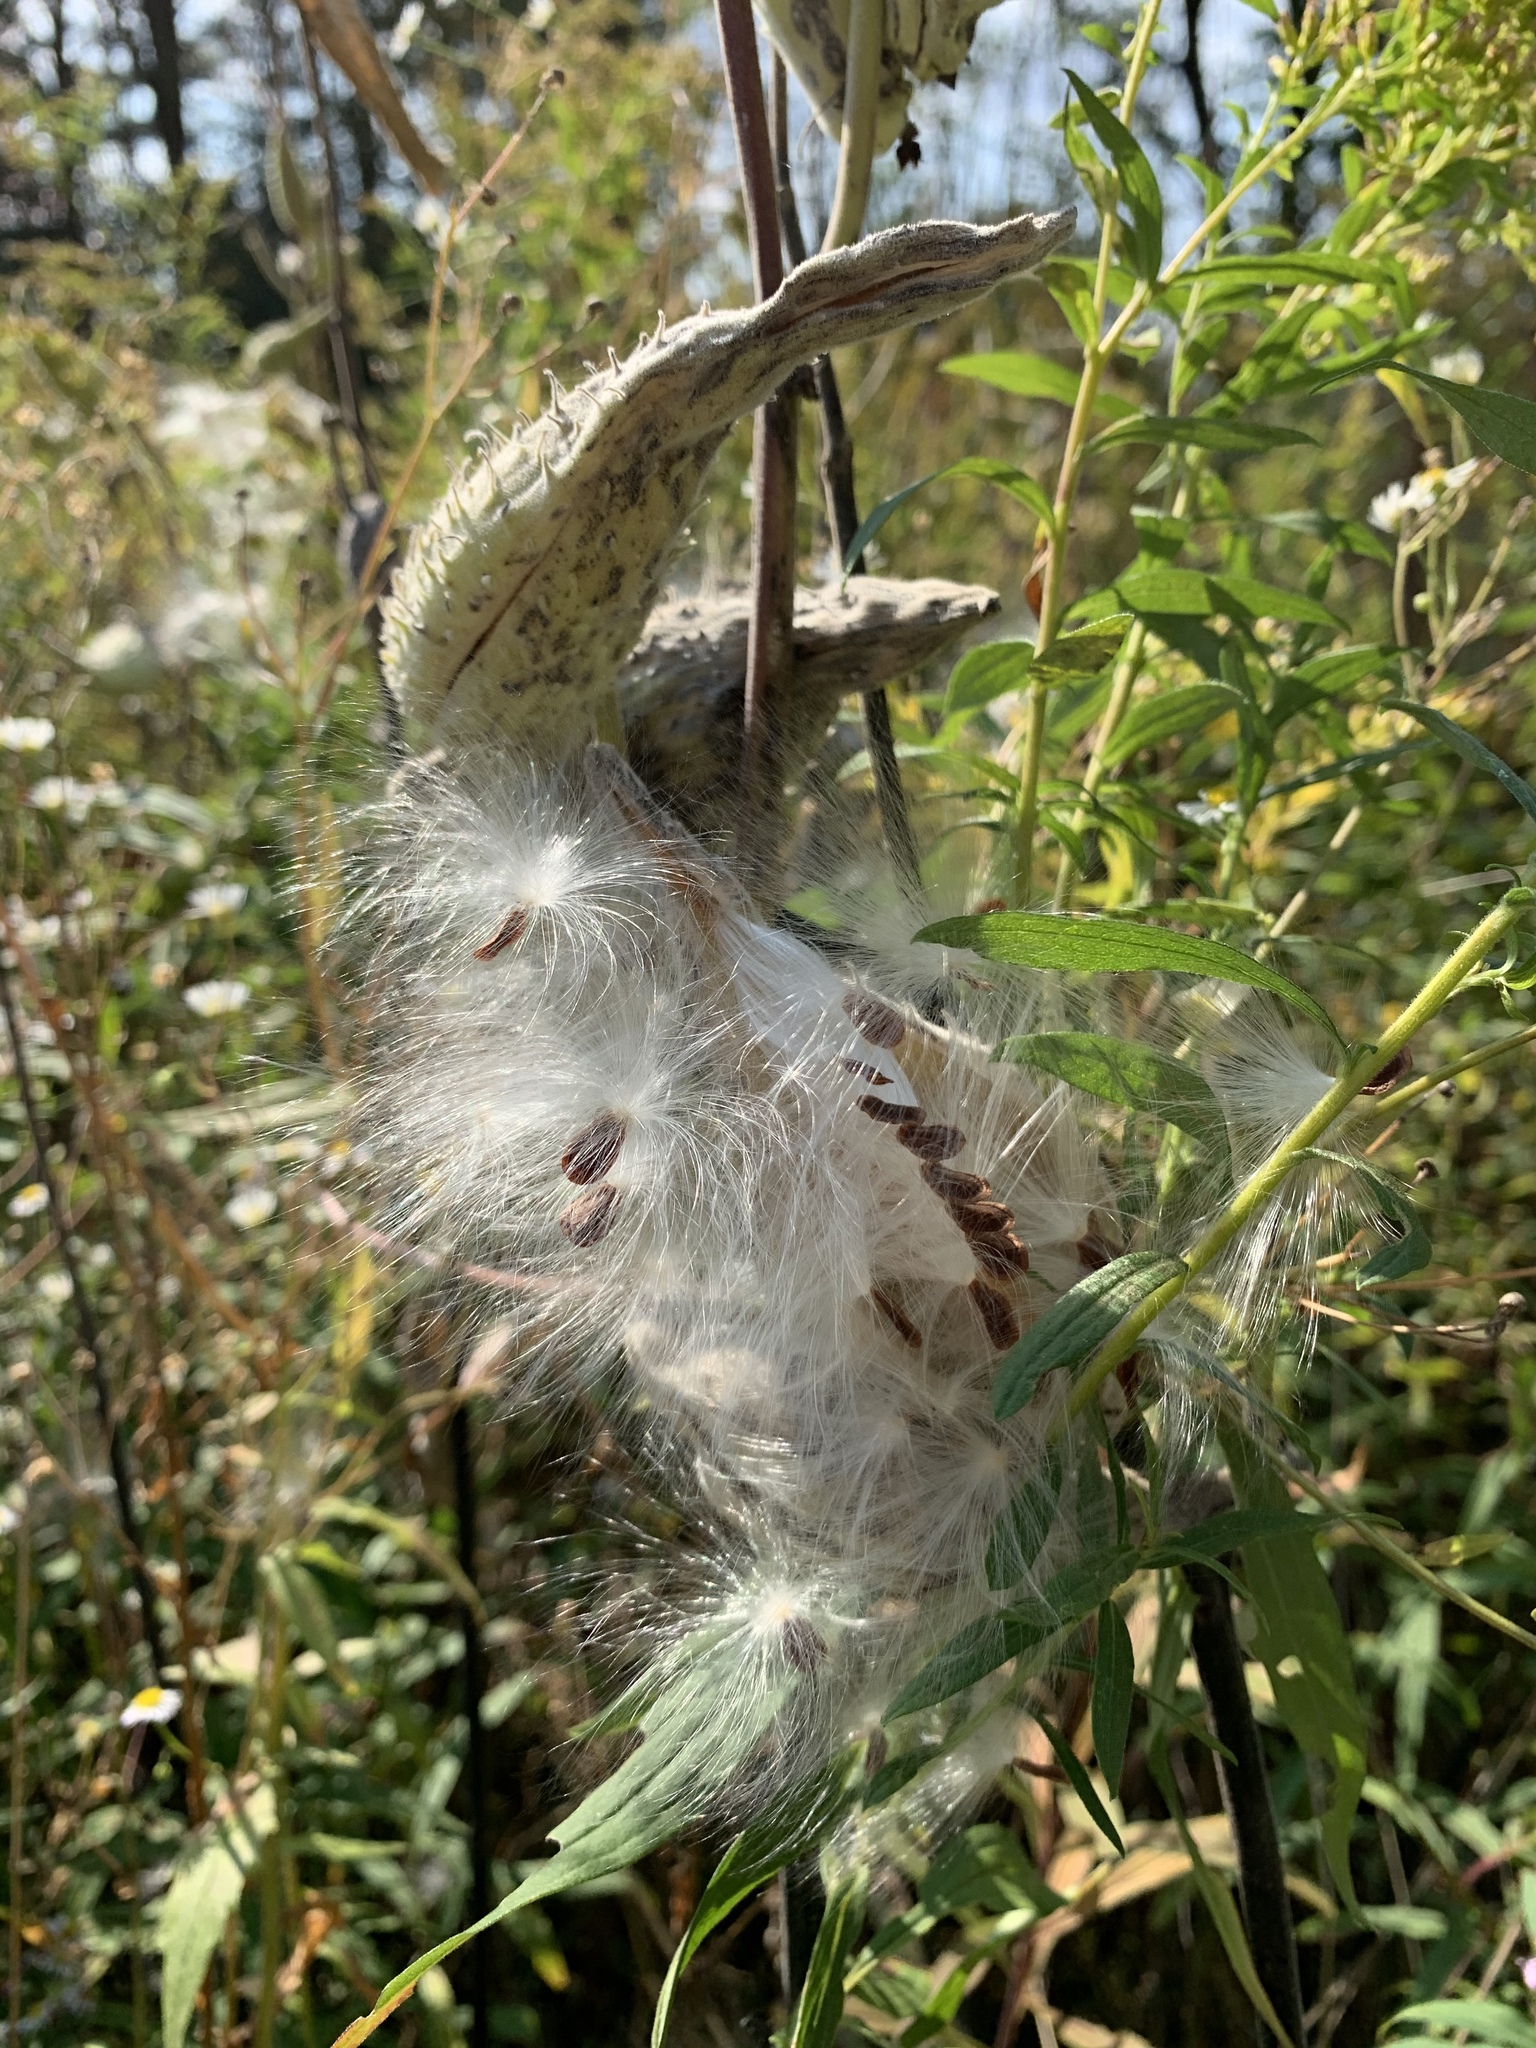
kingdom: Plantae
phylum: Tracheophyta
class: Magnoliopsida
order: Gentianales
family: Apocynaceae
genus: Asclepias
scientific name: Asclepias syriaca
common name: Common milkweed
